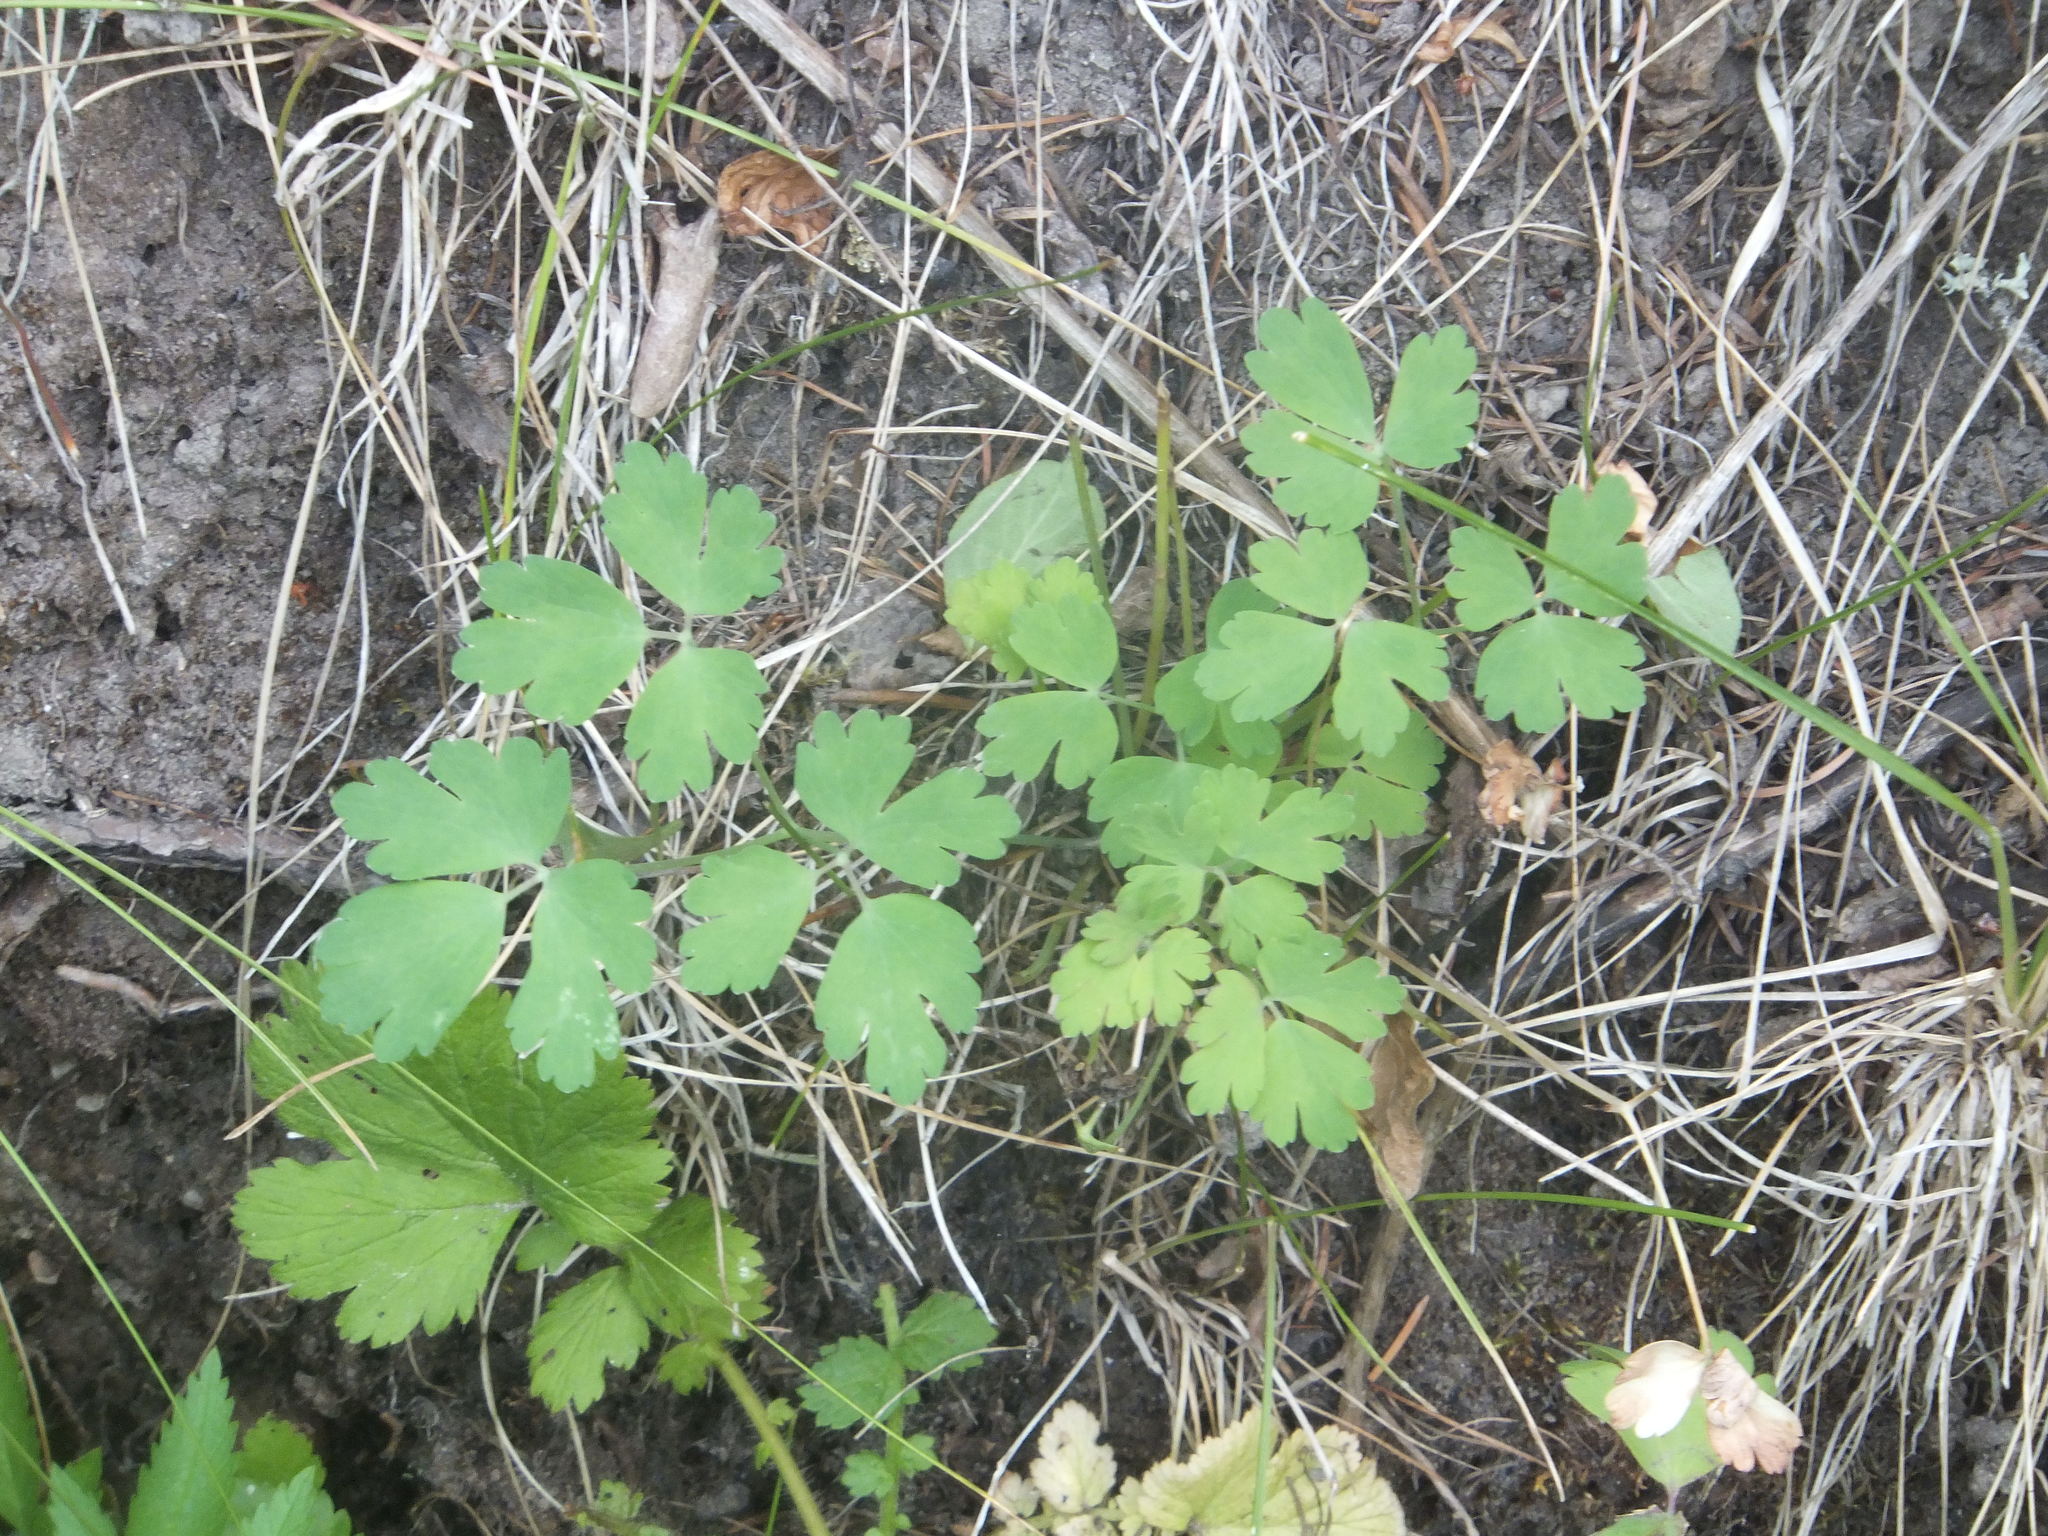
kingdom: Plantae
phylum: Tracheophyta
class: Magnoliopsida
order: Ranunculales
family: Ranunculaceae
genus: Thalictrum
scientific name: Thalictrum occidentale
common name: Western meadow-rue
